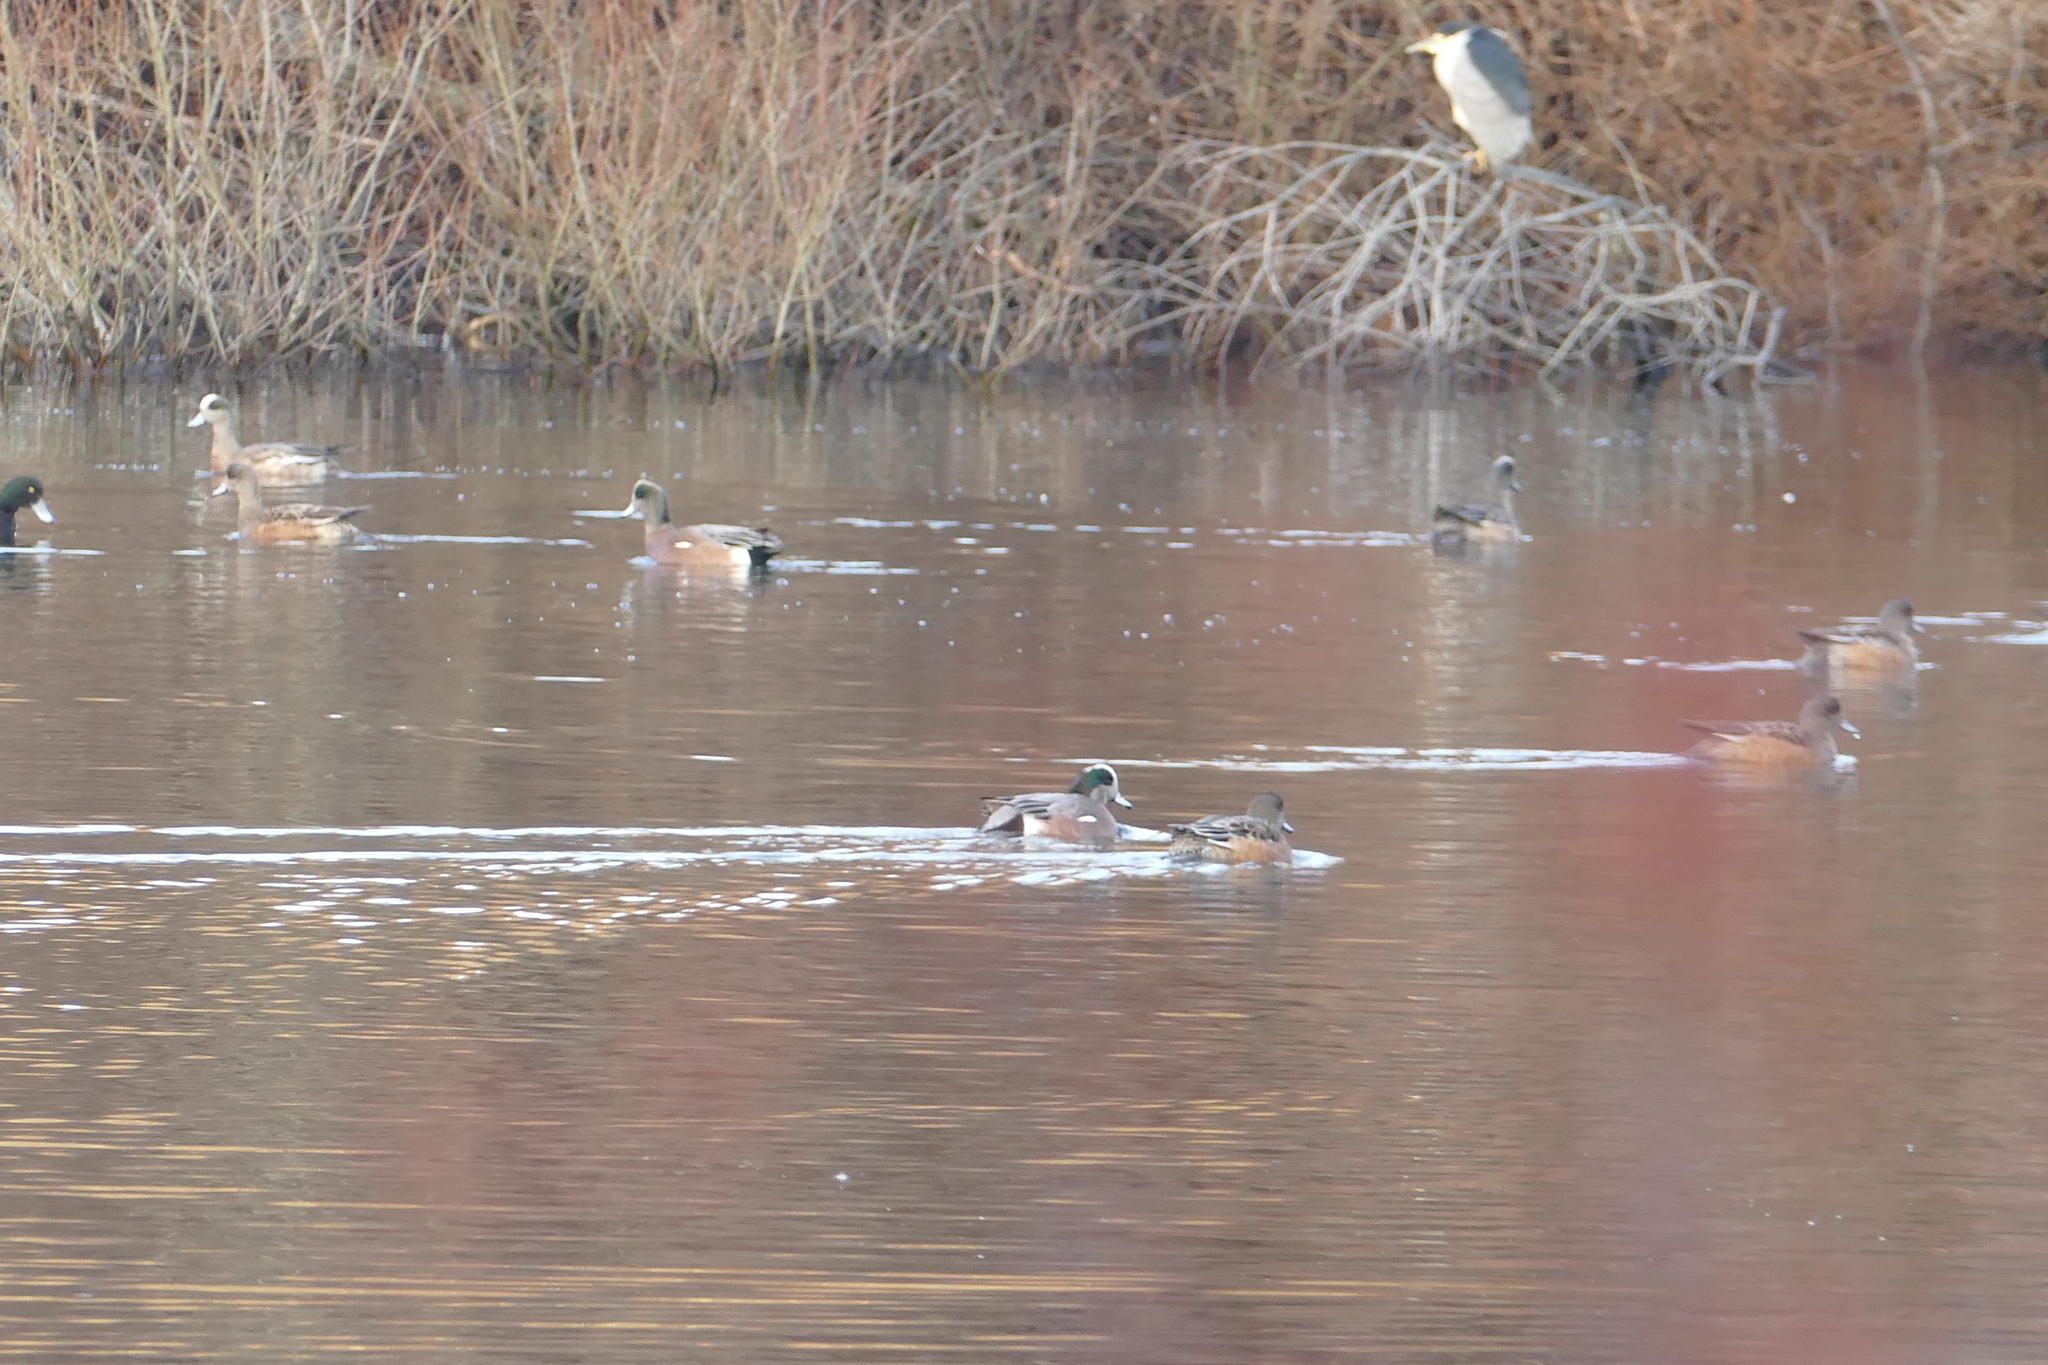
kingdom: Animalia
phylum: Chordata
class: Aves
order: Pelecaniformes
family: Ardeidae
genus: Nycticorax
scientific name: Nycticorax nycticorax
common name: Black-crowned night heron
